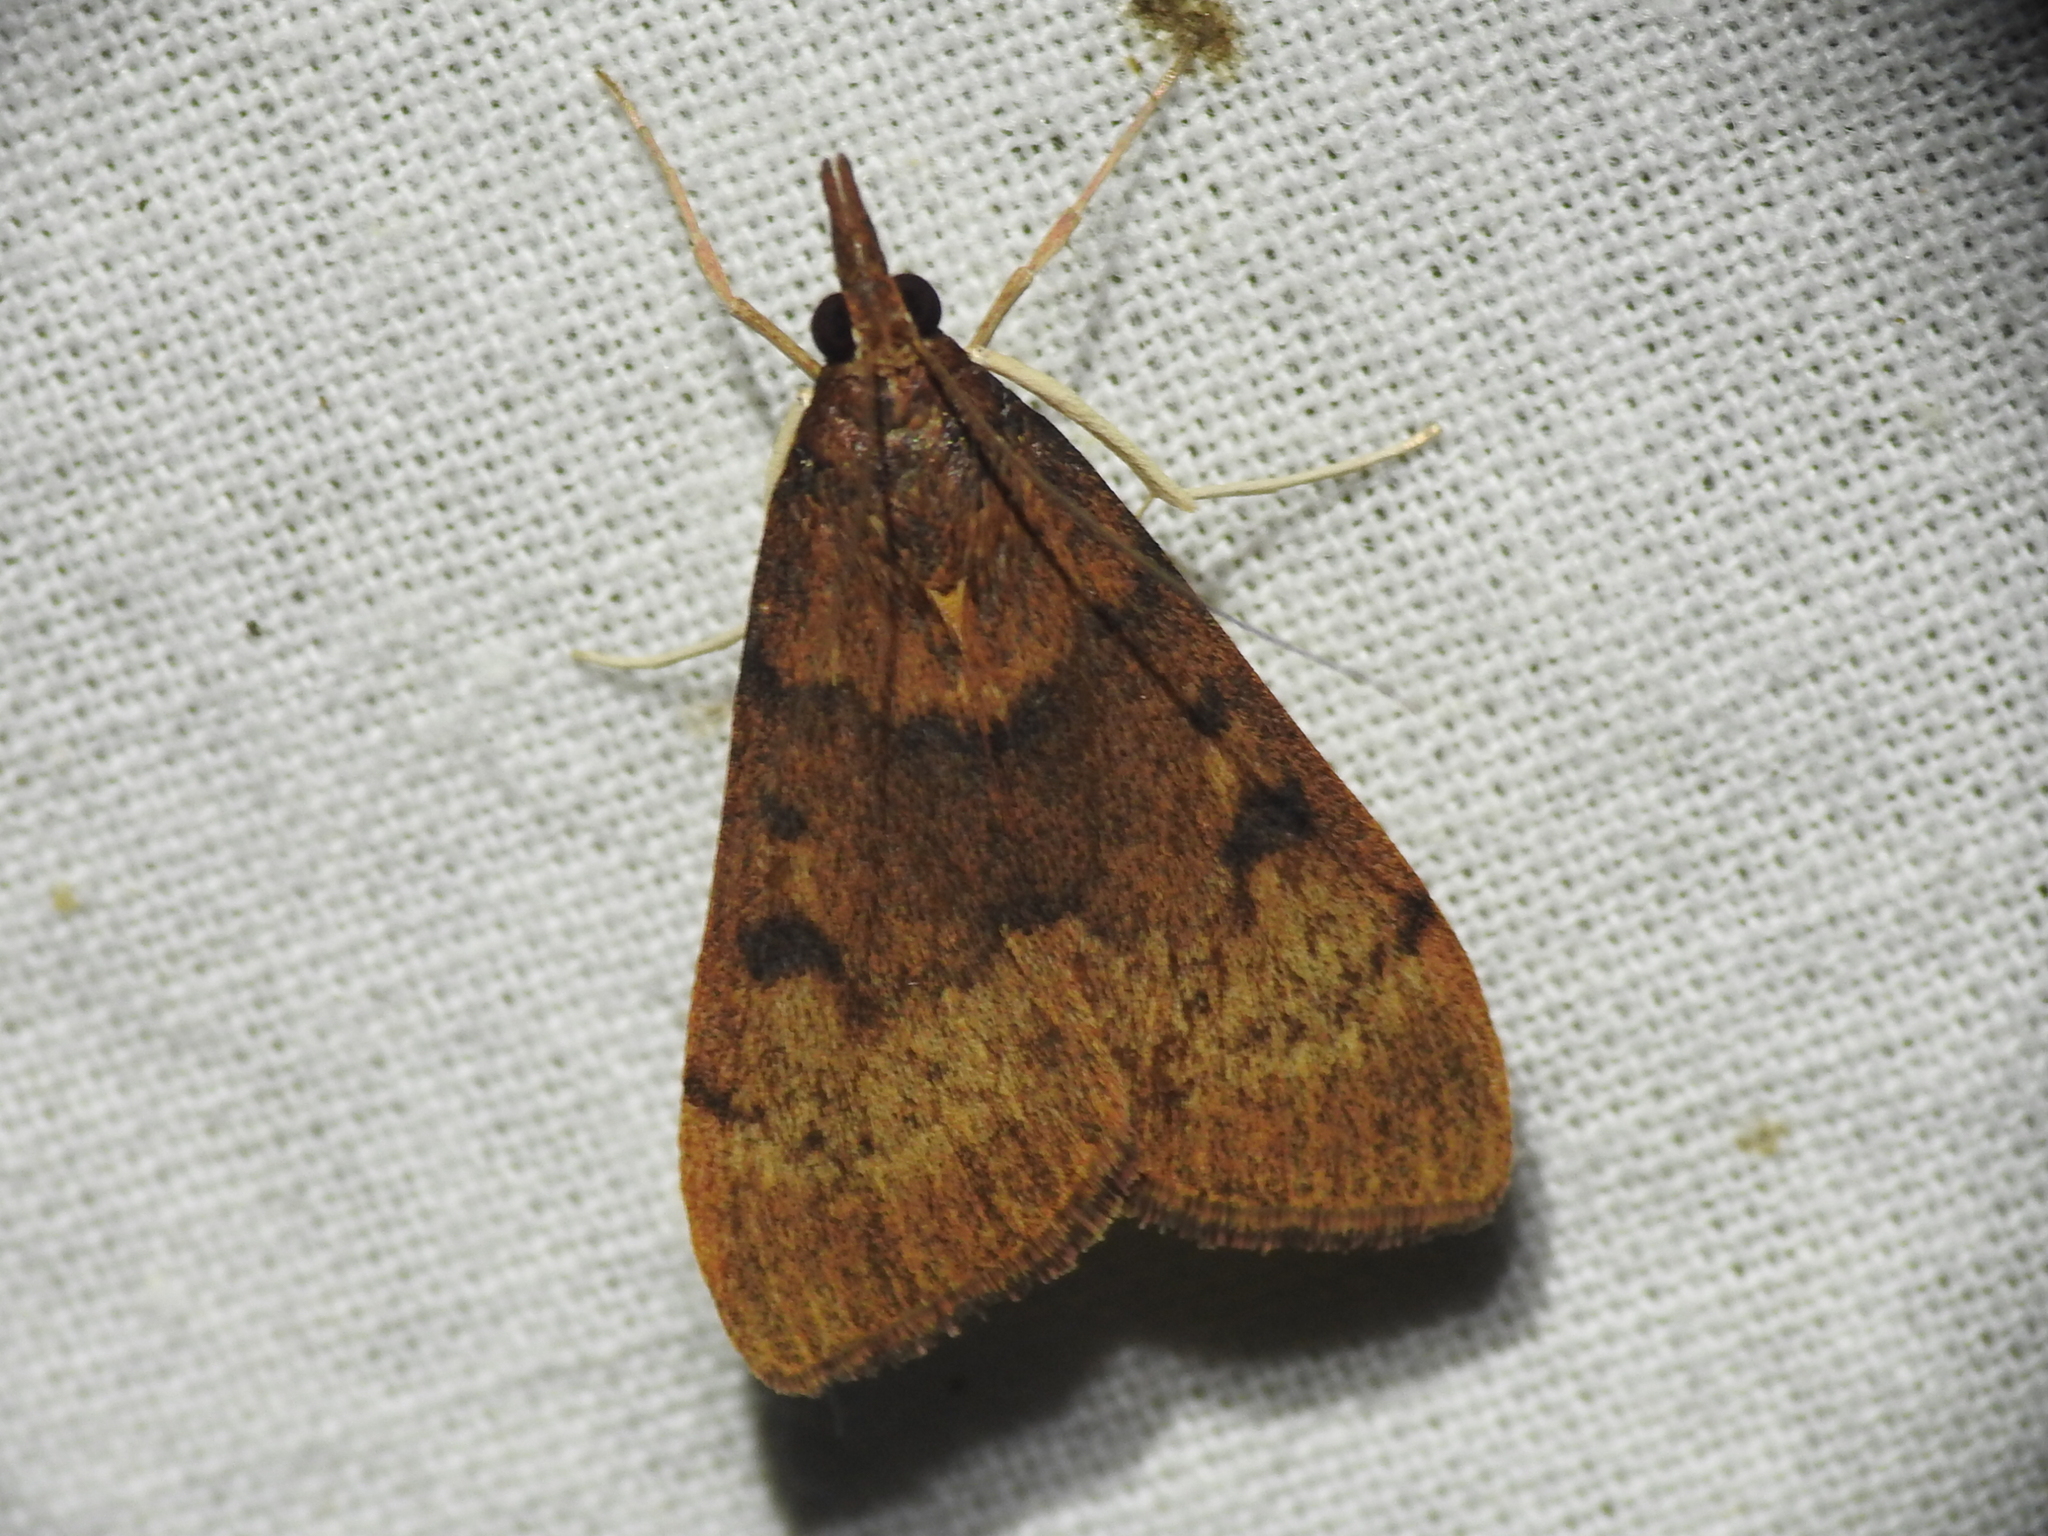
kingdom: Animalia
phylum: Arthropoda
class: Insecta
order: Lepidoptera
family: Crambidae
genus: Uresiphita
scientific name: Uresiphita reversalis
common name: Genista broom moth
